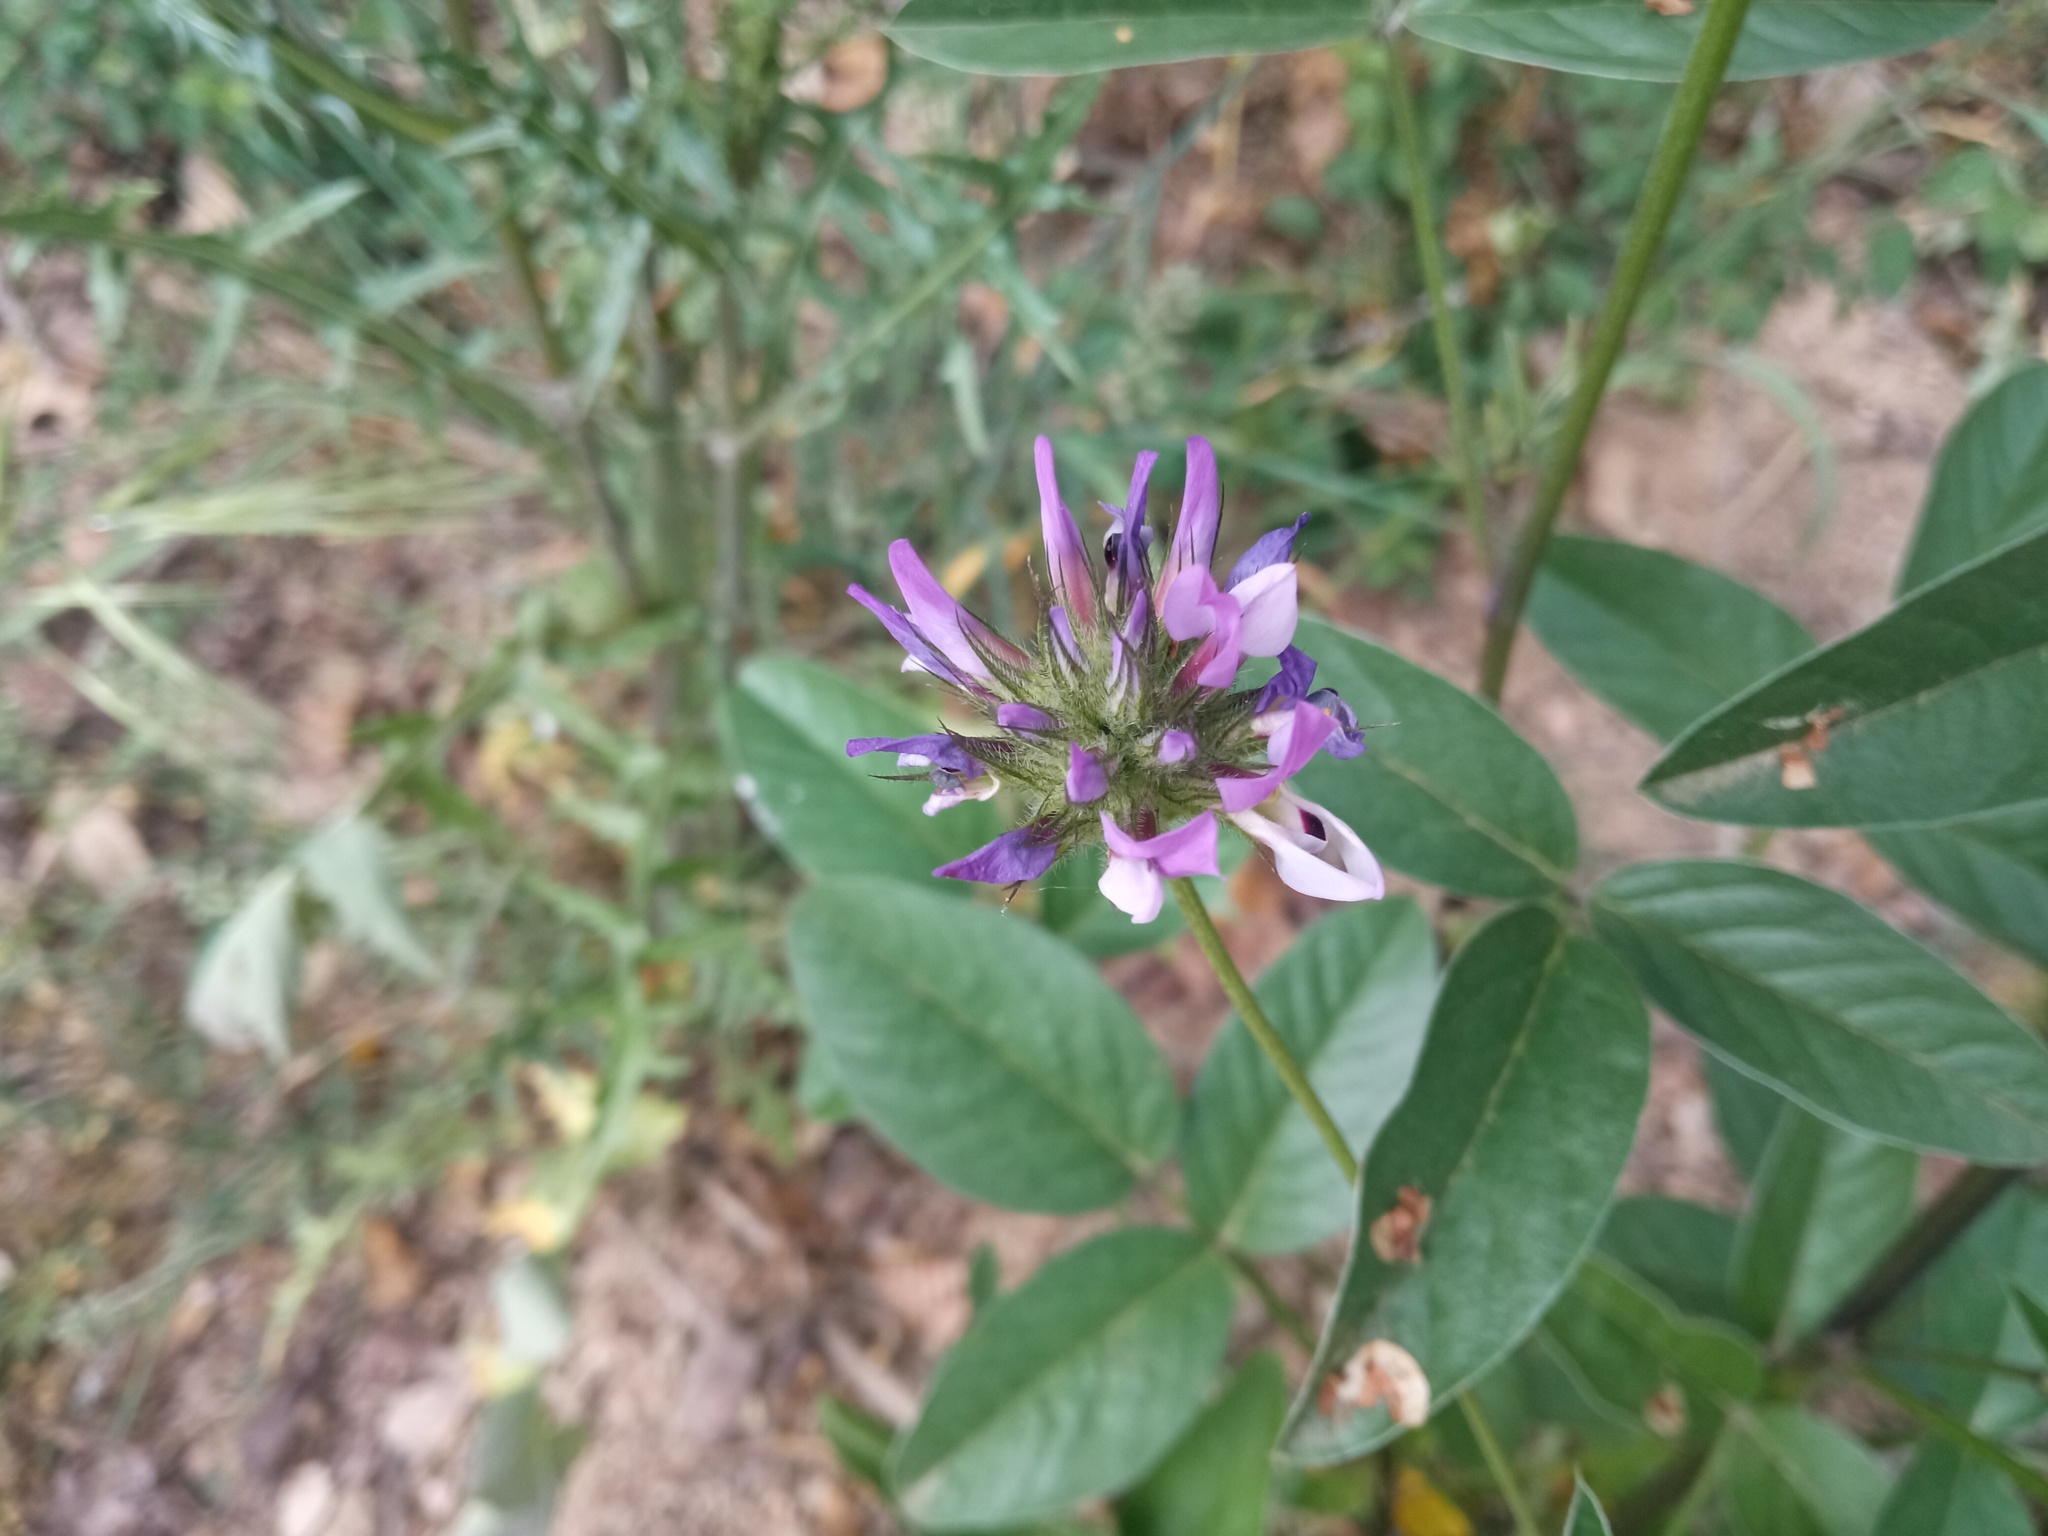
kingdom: Plantae
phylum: Tracheophyta
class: Magnoliopsida
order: Fabales
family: Fabaceae
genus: Bituminaria
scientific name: Bituminaria bituminosa
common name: Arabian pea
